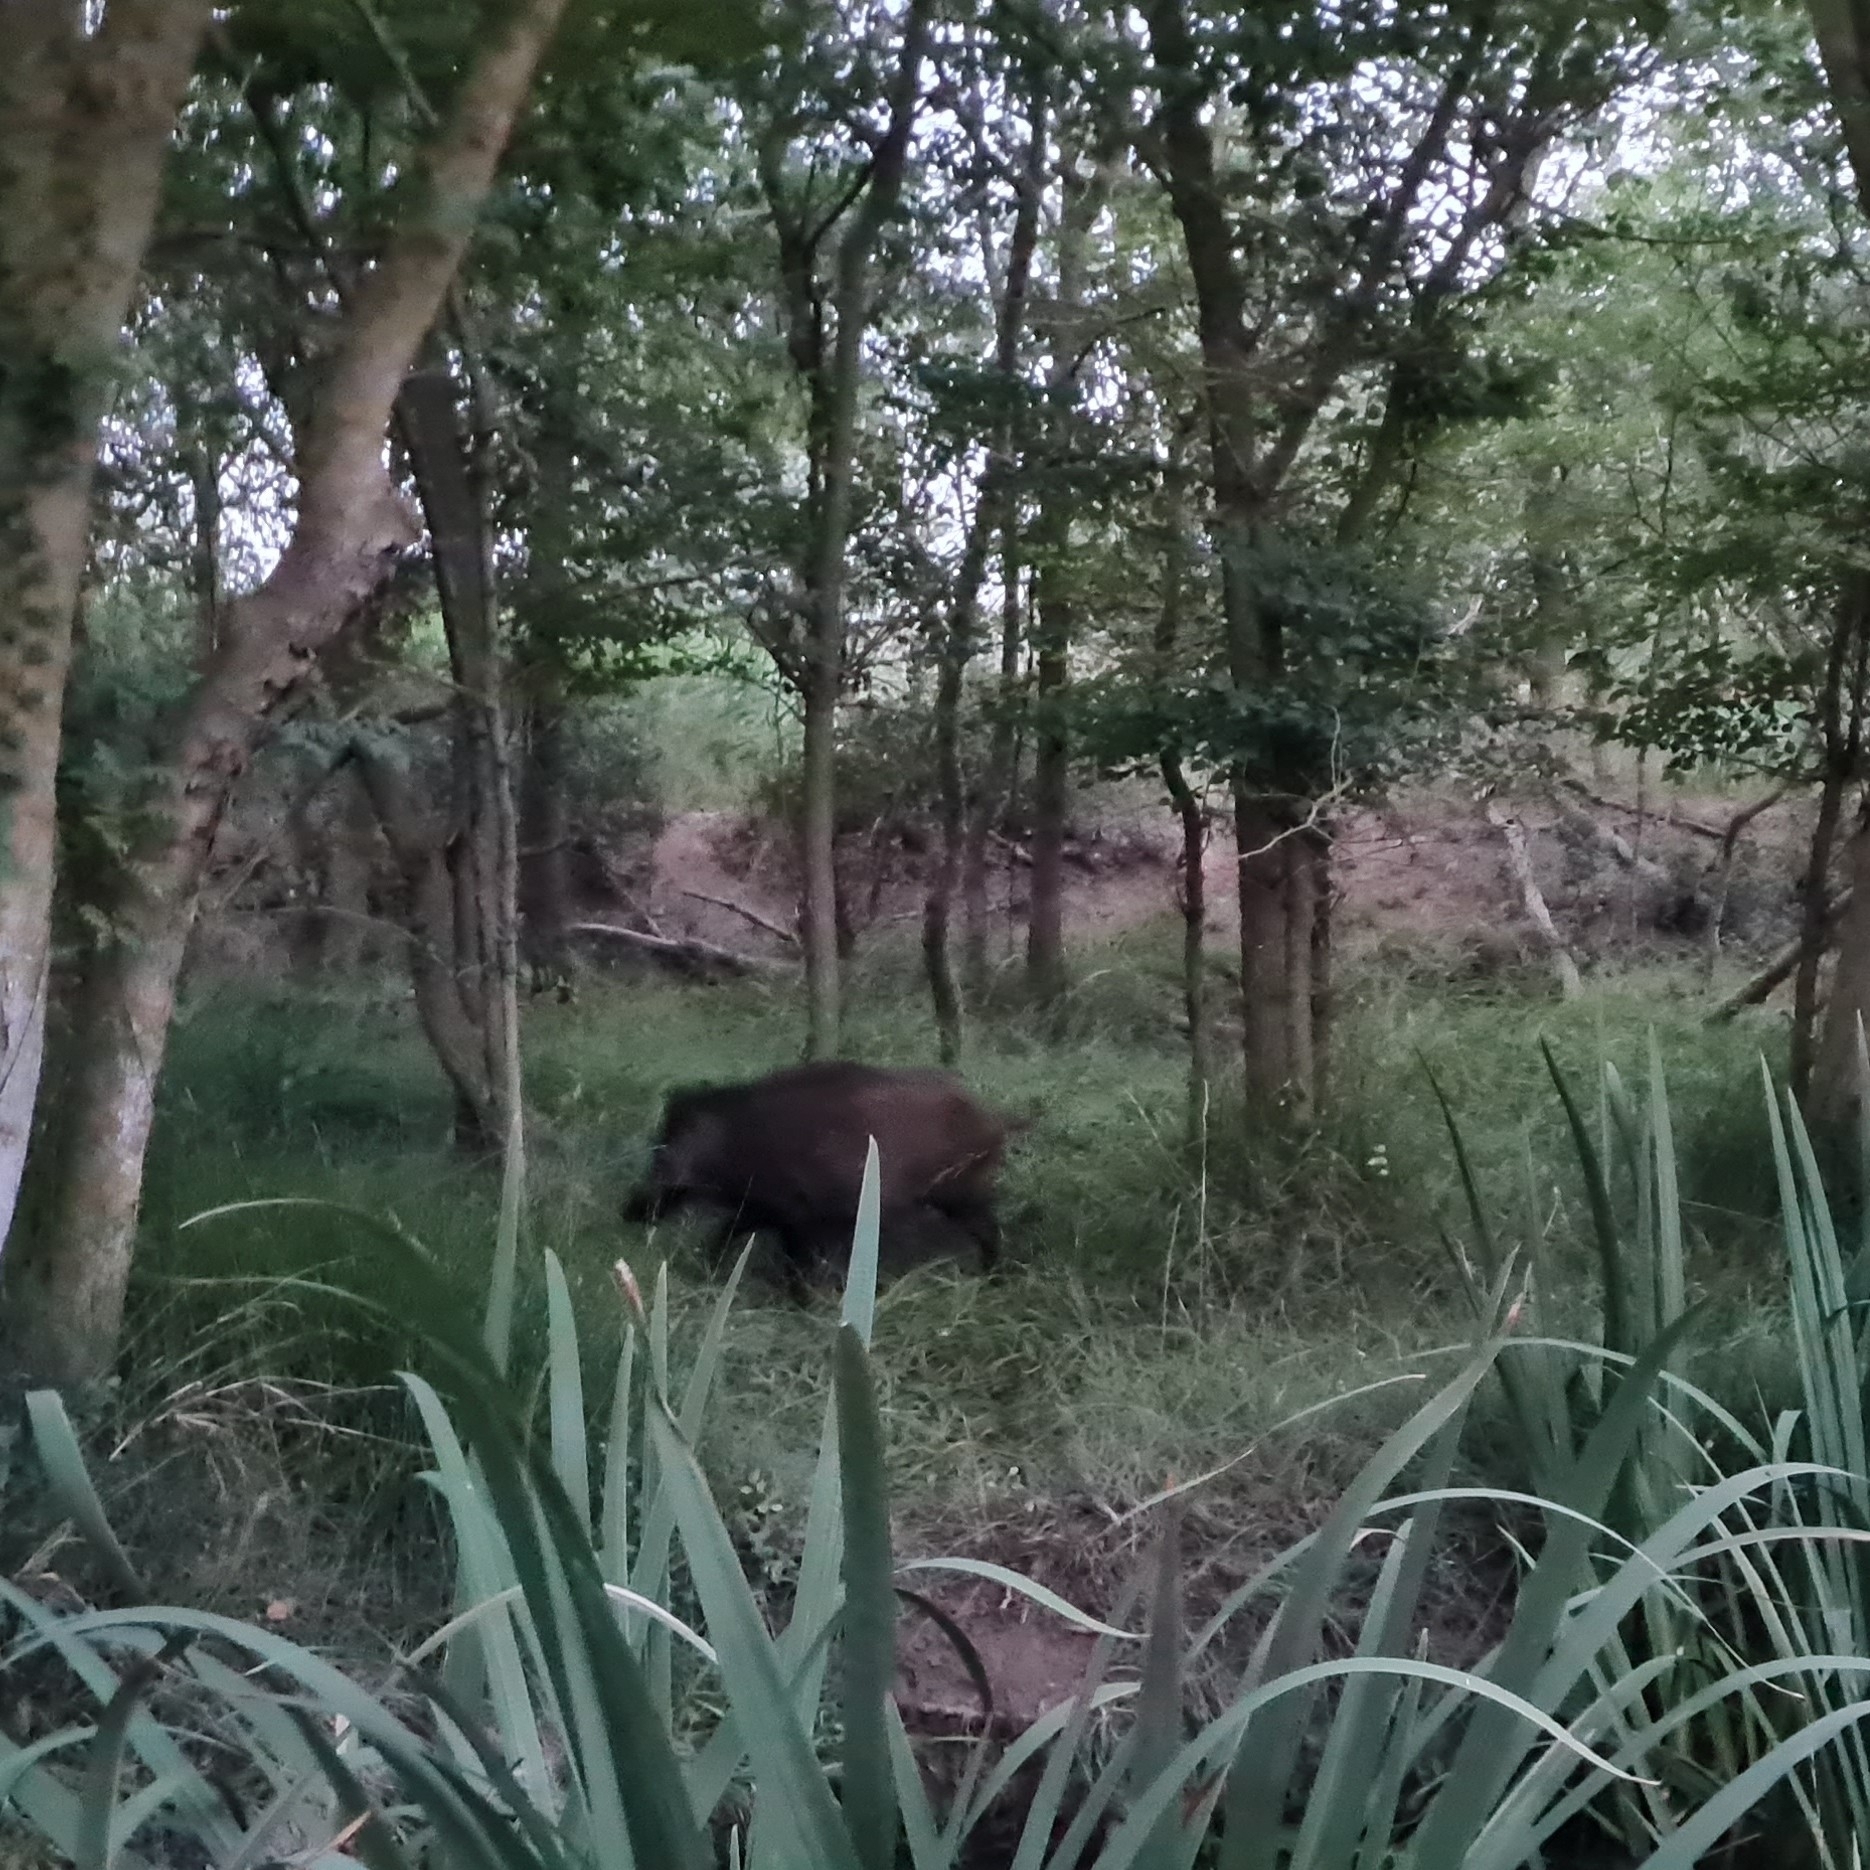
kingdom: Animalia
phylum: Chordata
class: Mammalia
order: Artiodactyla
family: Suidae
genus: Sus
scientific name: Sus scrofa
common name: Wild boar
